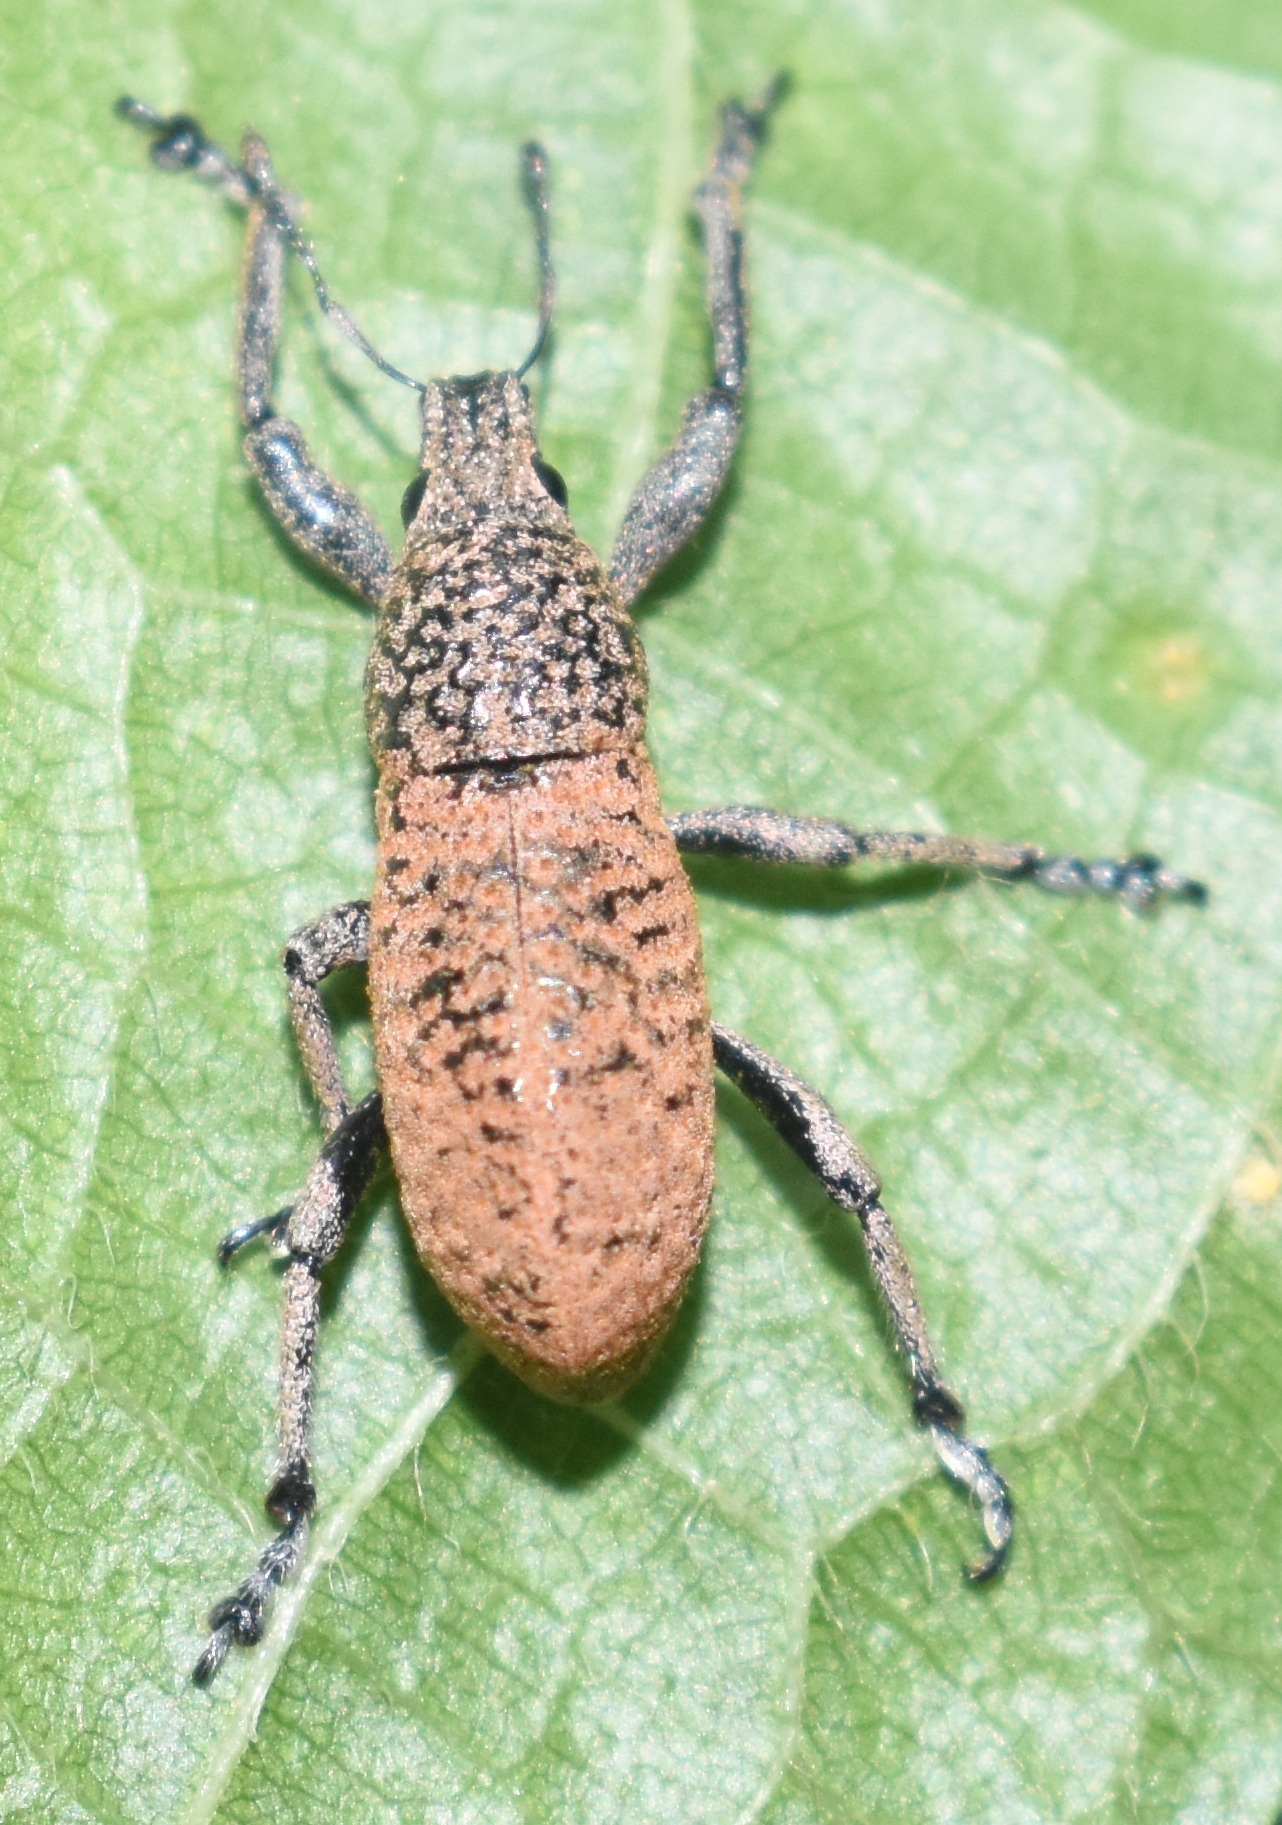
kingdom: Animalia
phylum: Arthropoda
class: Insecta
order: Coleoptera
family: Curculionidae
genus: Cleistolophus
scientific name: Cleistolophus similis
